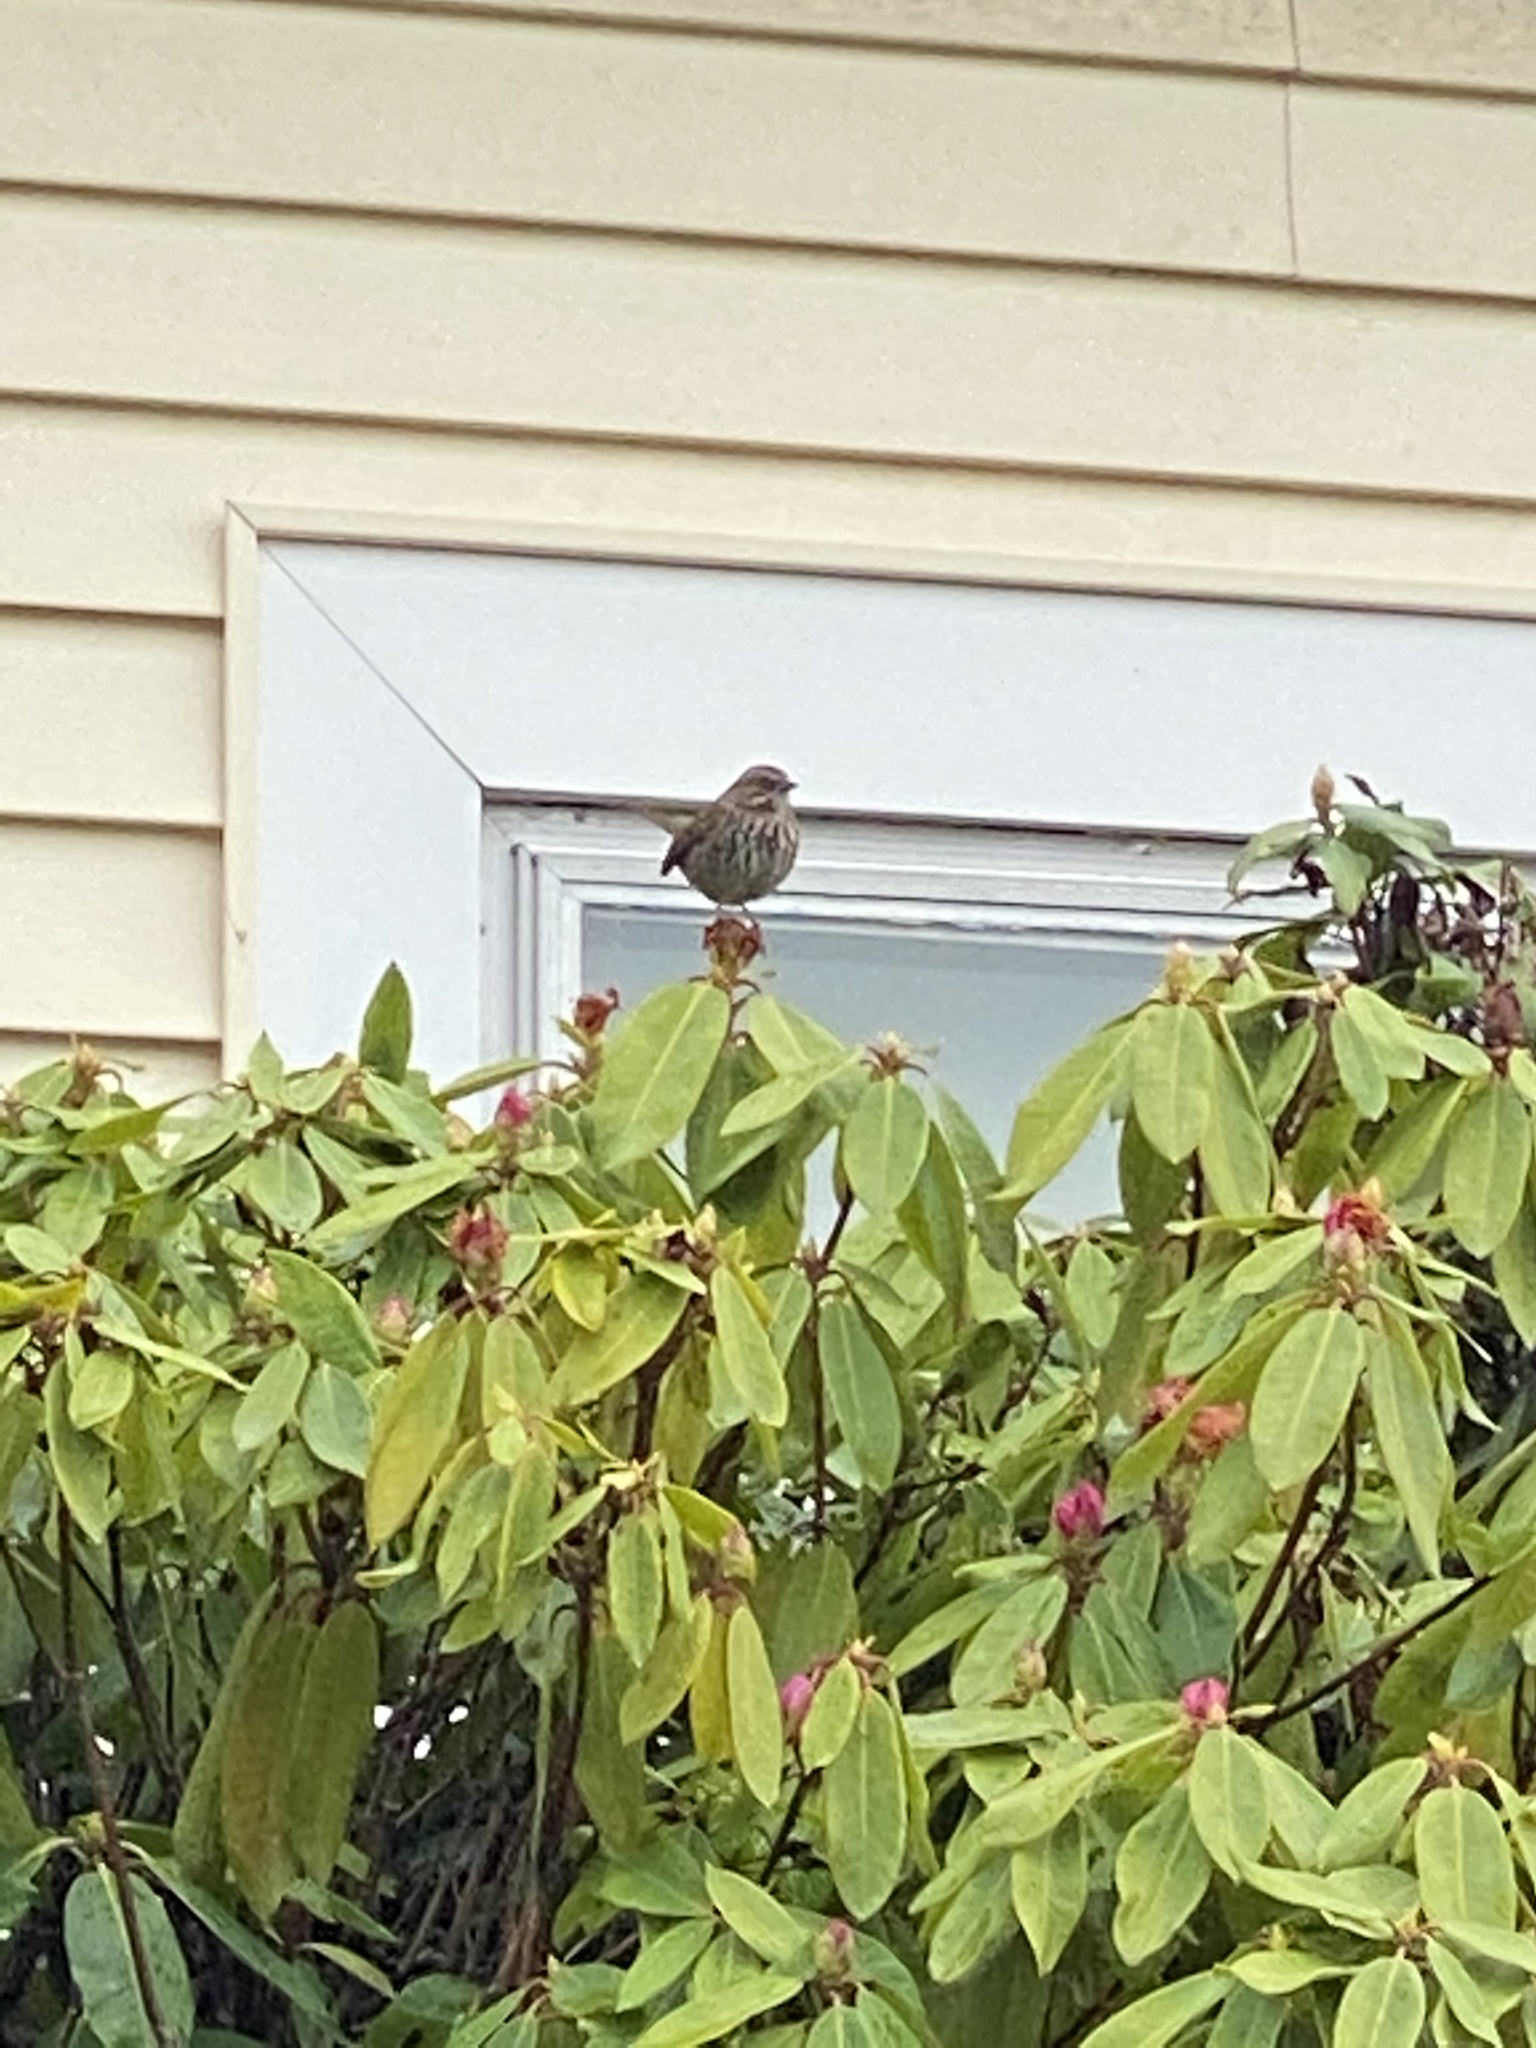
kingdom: Animalia
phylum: Chordata
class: Aves
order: Passeriformes
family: Passerellidae
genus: Melospiza
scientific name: Melospiza melodia
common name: Song sparrow
